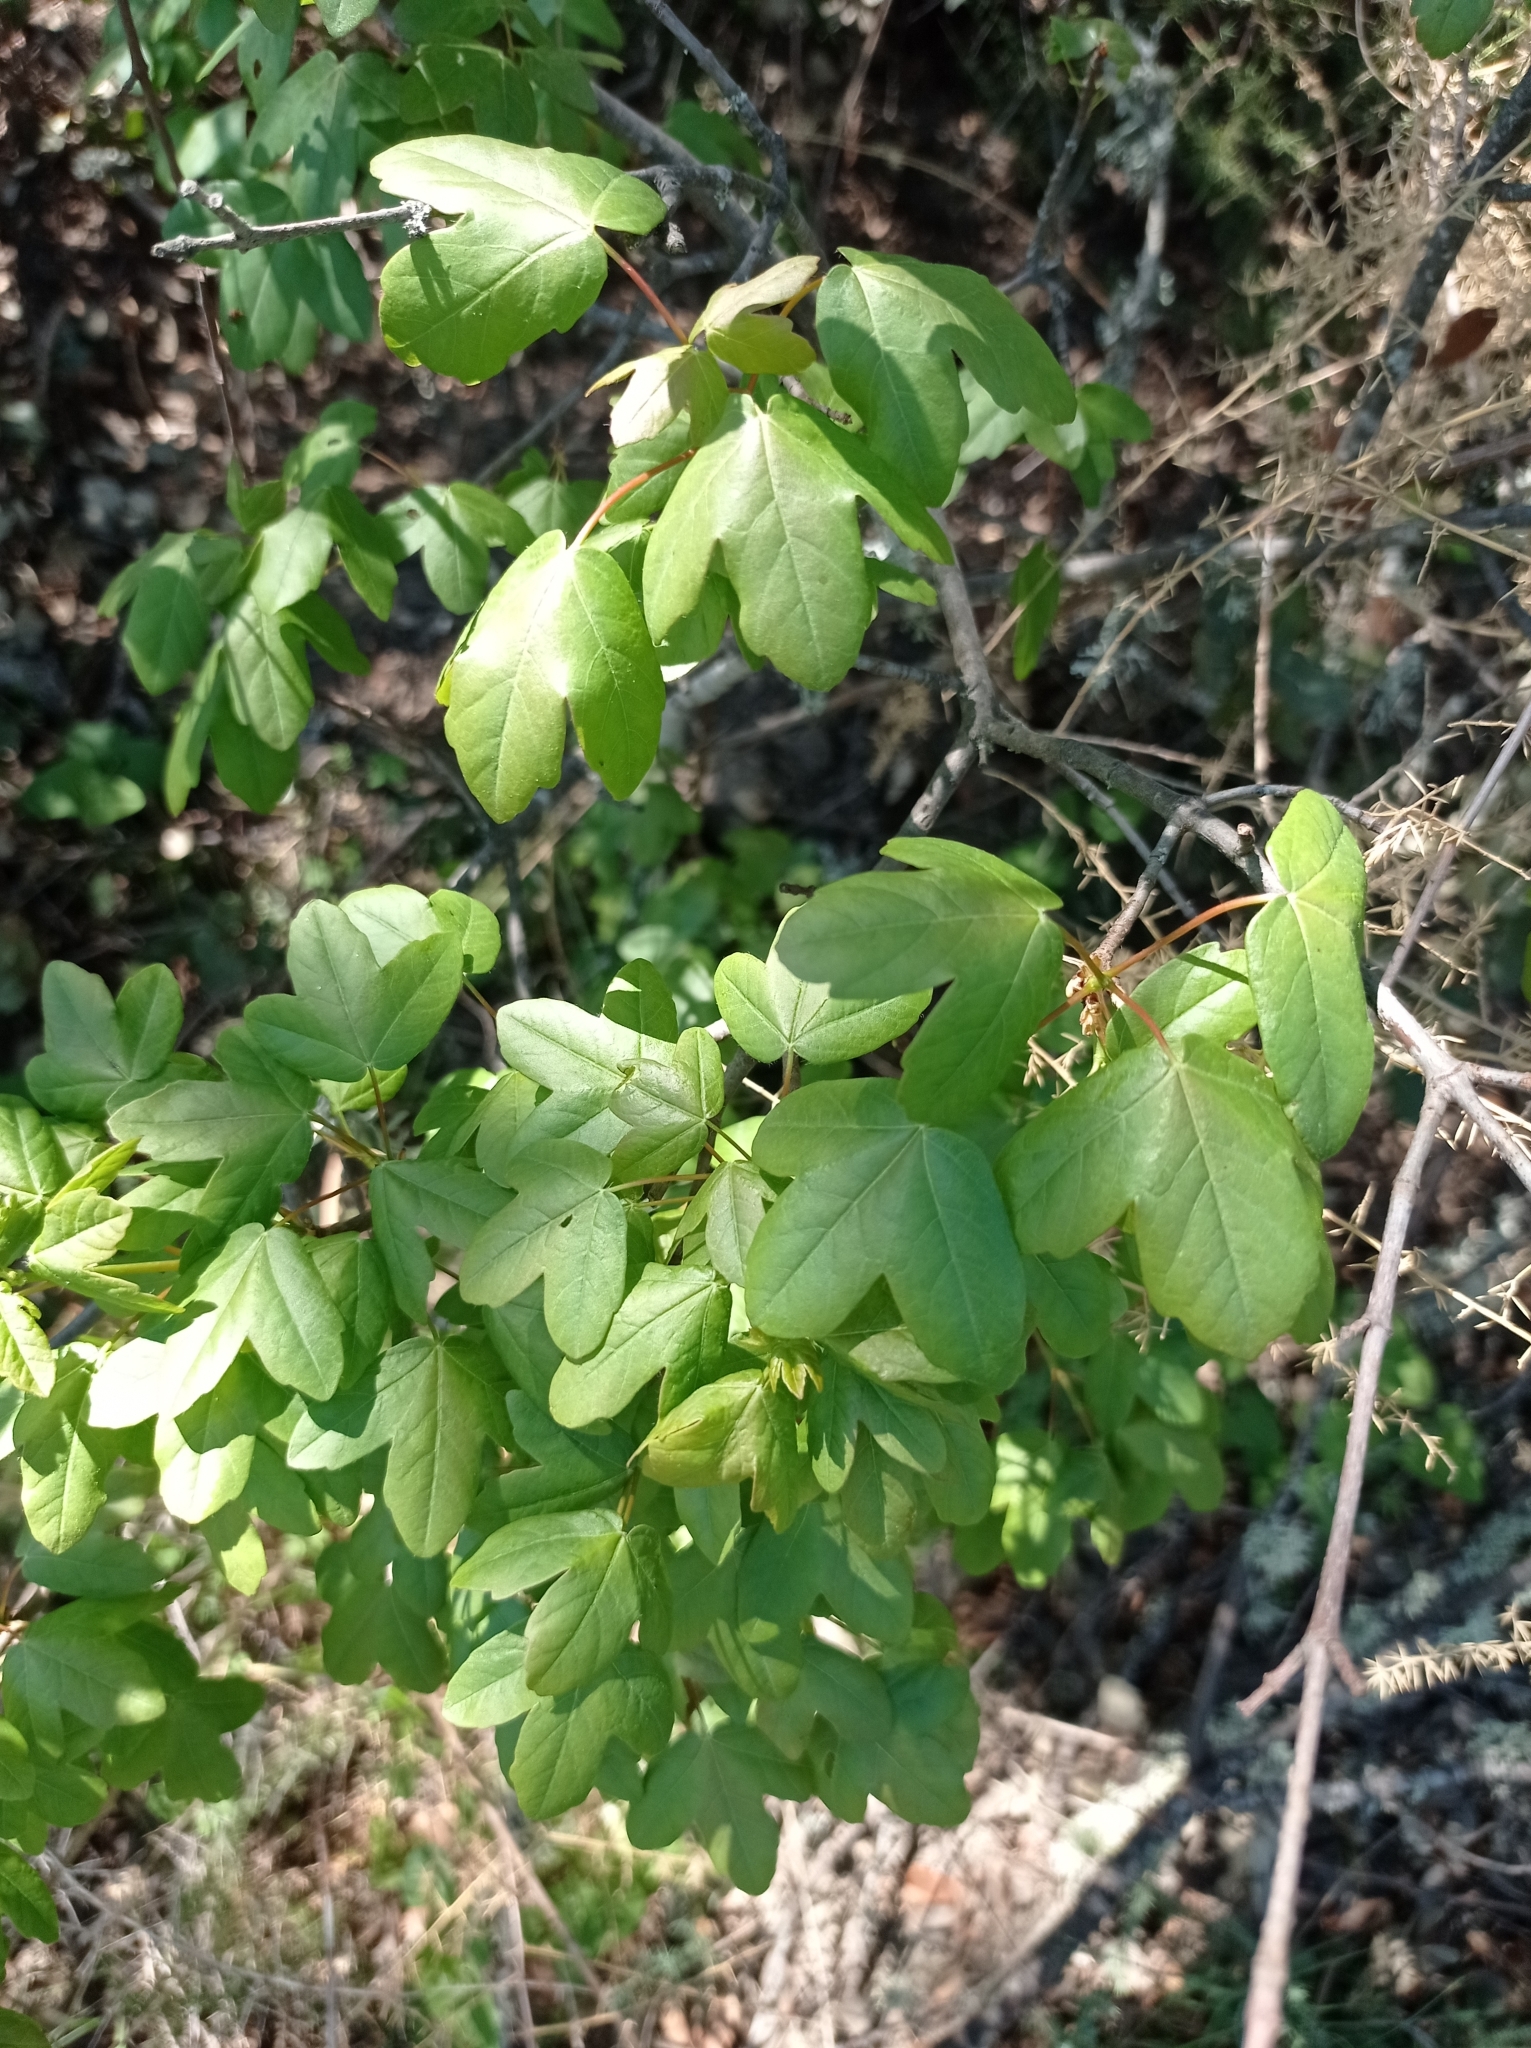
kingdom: Plantae
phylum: Tracheophyta
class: Magnoliopsida
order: Sapindales
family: Sapindaceae
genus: Acer
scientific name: Acer monspessulanum
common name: Montpellier maple
